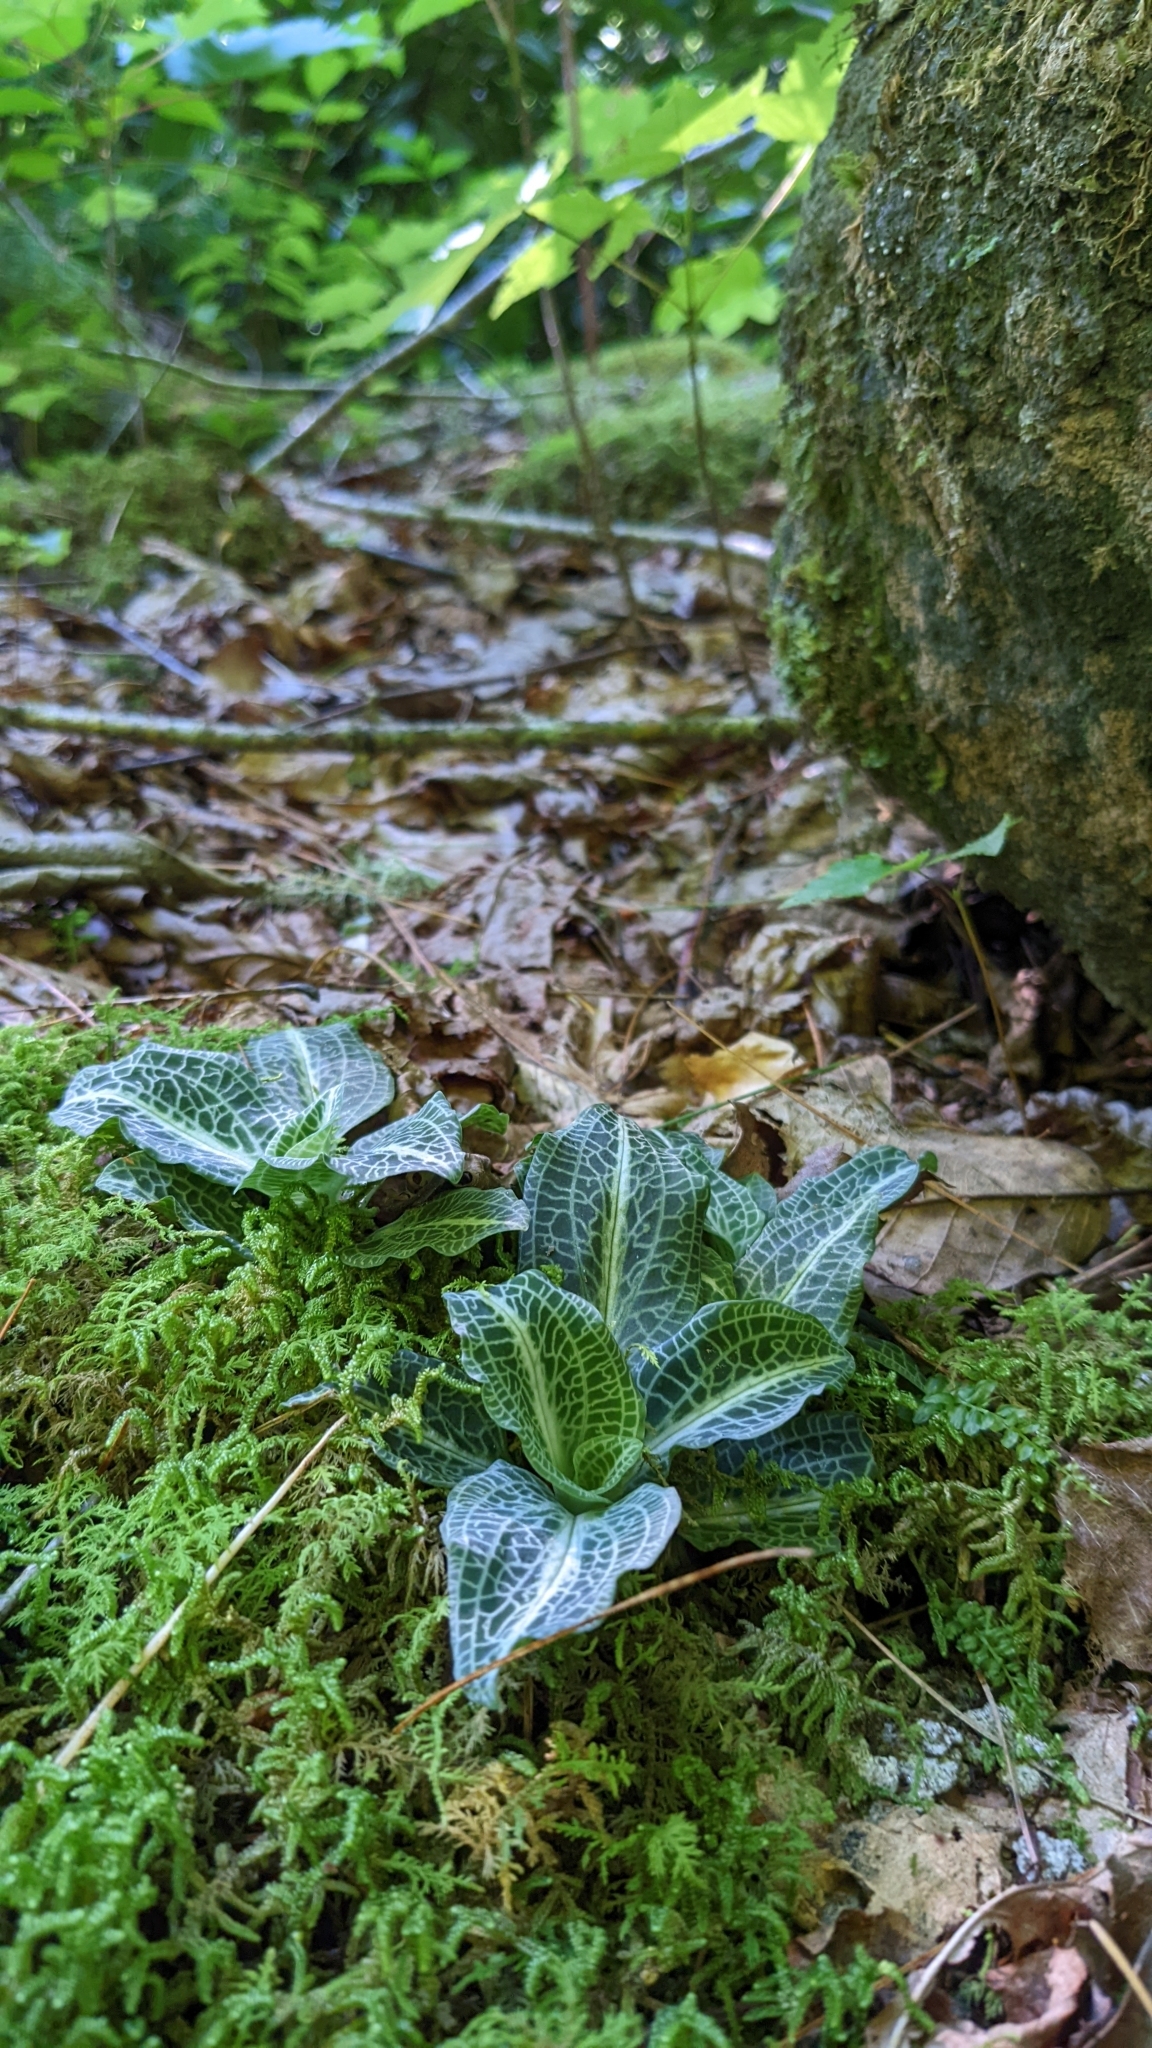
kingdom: Plantae
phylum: Tracheophyta
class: Liliopsida
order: Asparagales
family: Orchidaceae
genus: Goodyera
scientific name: Goodyera pubescens
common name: Downy rattlesnake-plantain
